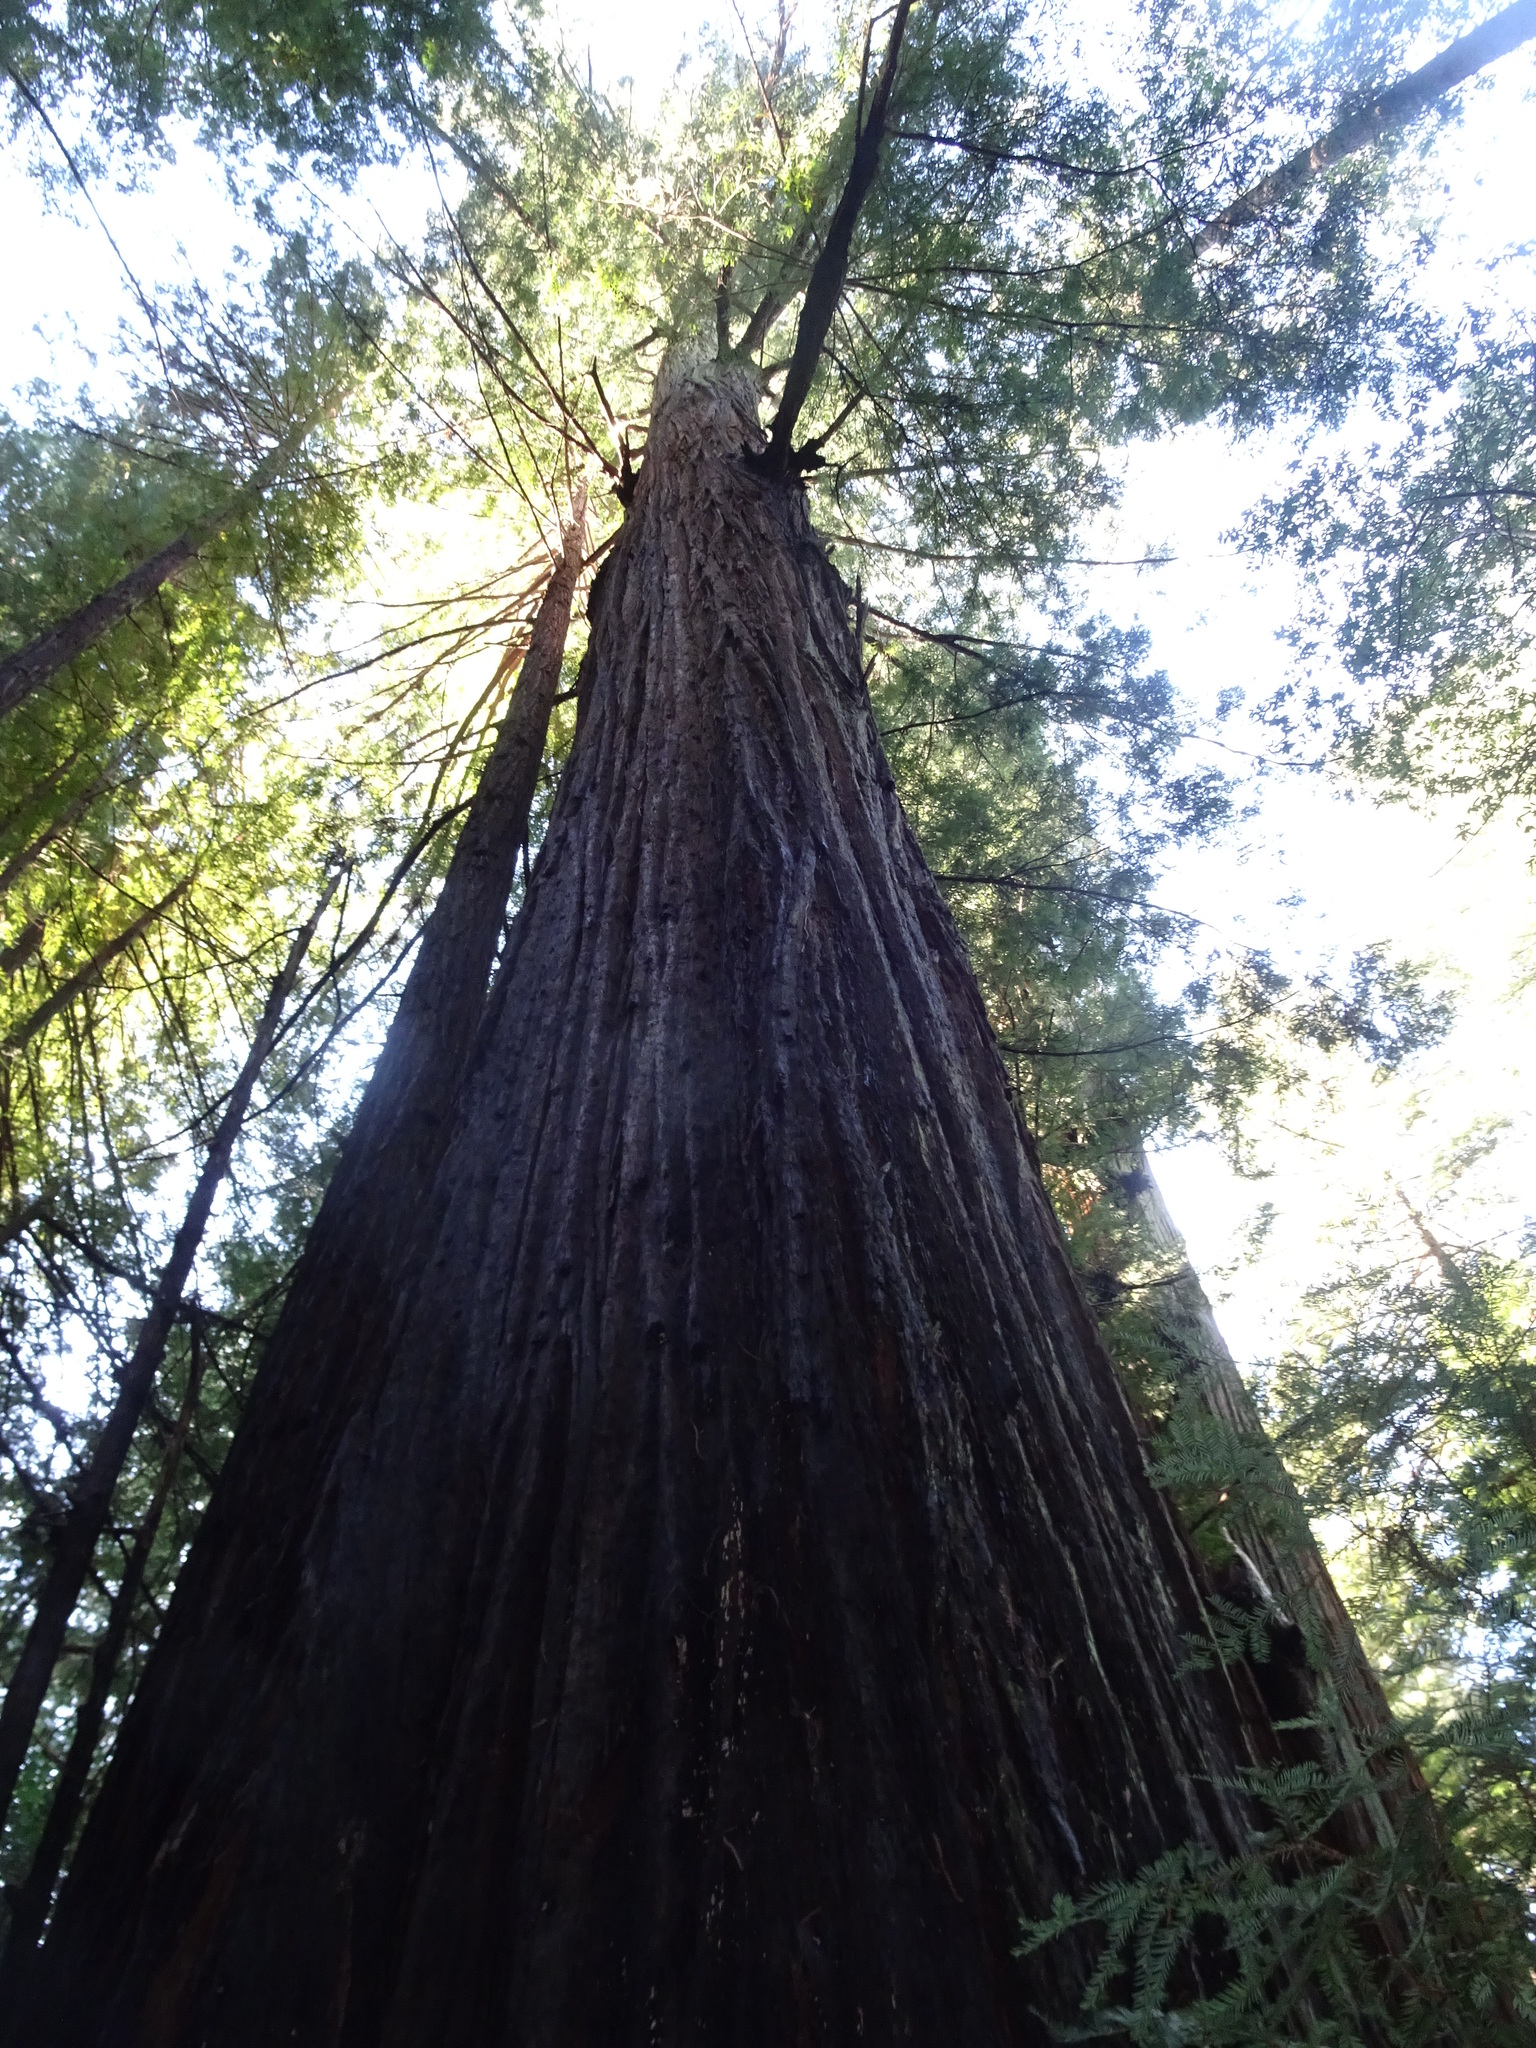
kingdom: Plantae
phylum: Tracheophyta
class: Pinopsida
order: Pinales
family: Cupressaceae
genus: Sequoia
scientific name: Sequoia sempervirens
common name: Coast redwood
